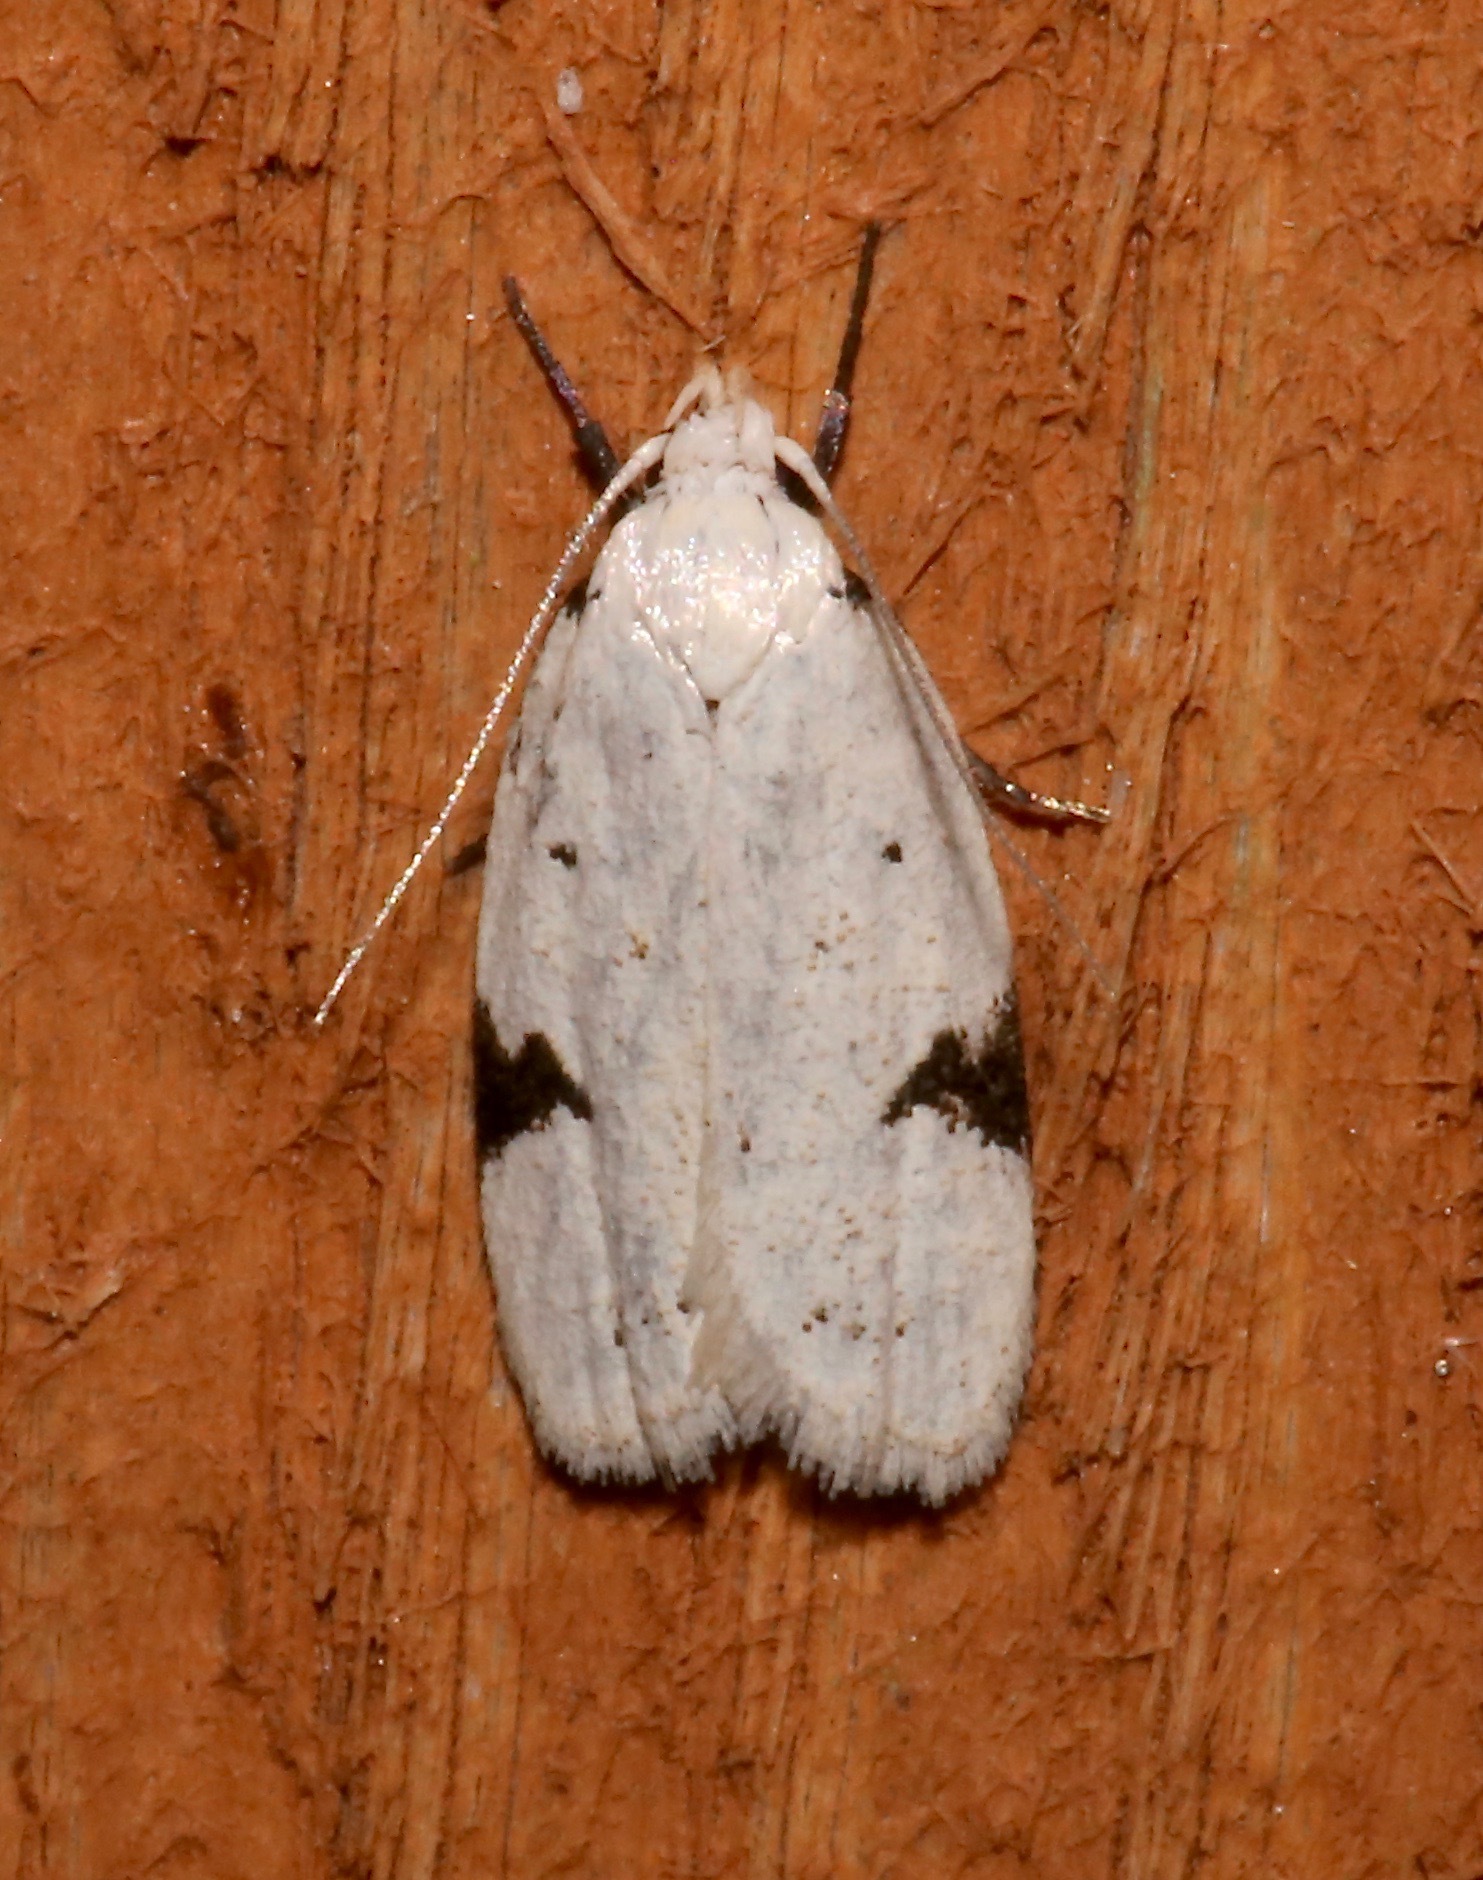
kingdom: Animalia
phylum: Arthropoda
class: Insecta
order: Lepidoptera
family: Oecophoridae
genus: Inga
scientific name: Inga sparsiciliella
